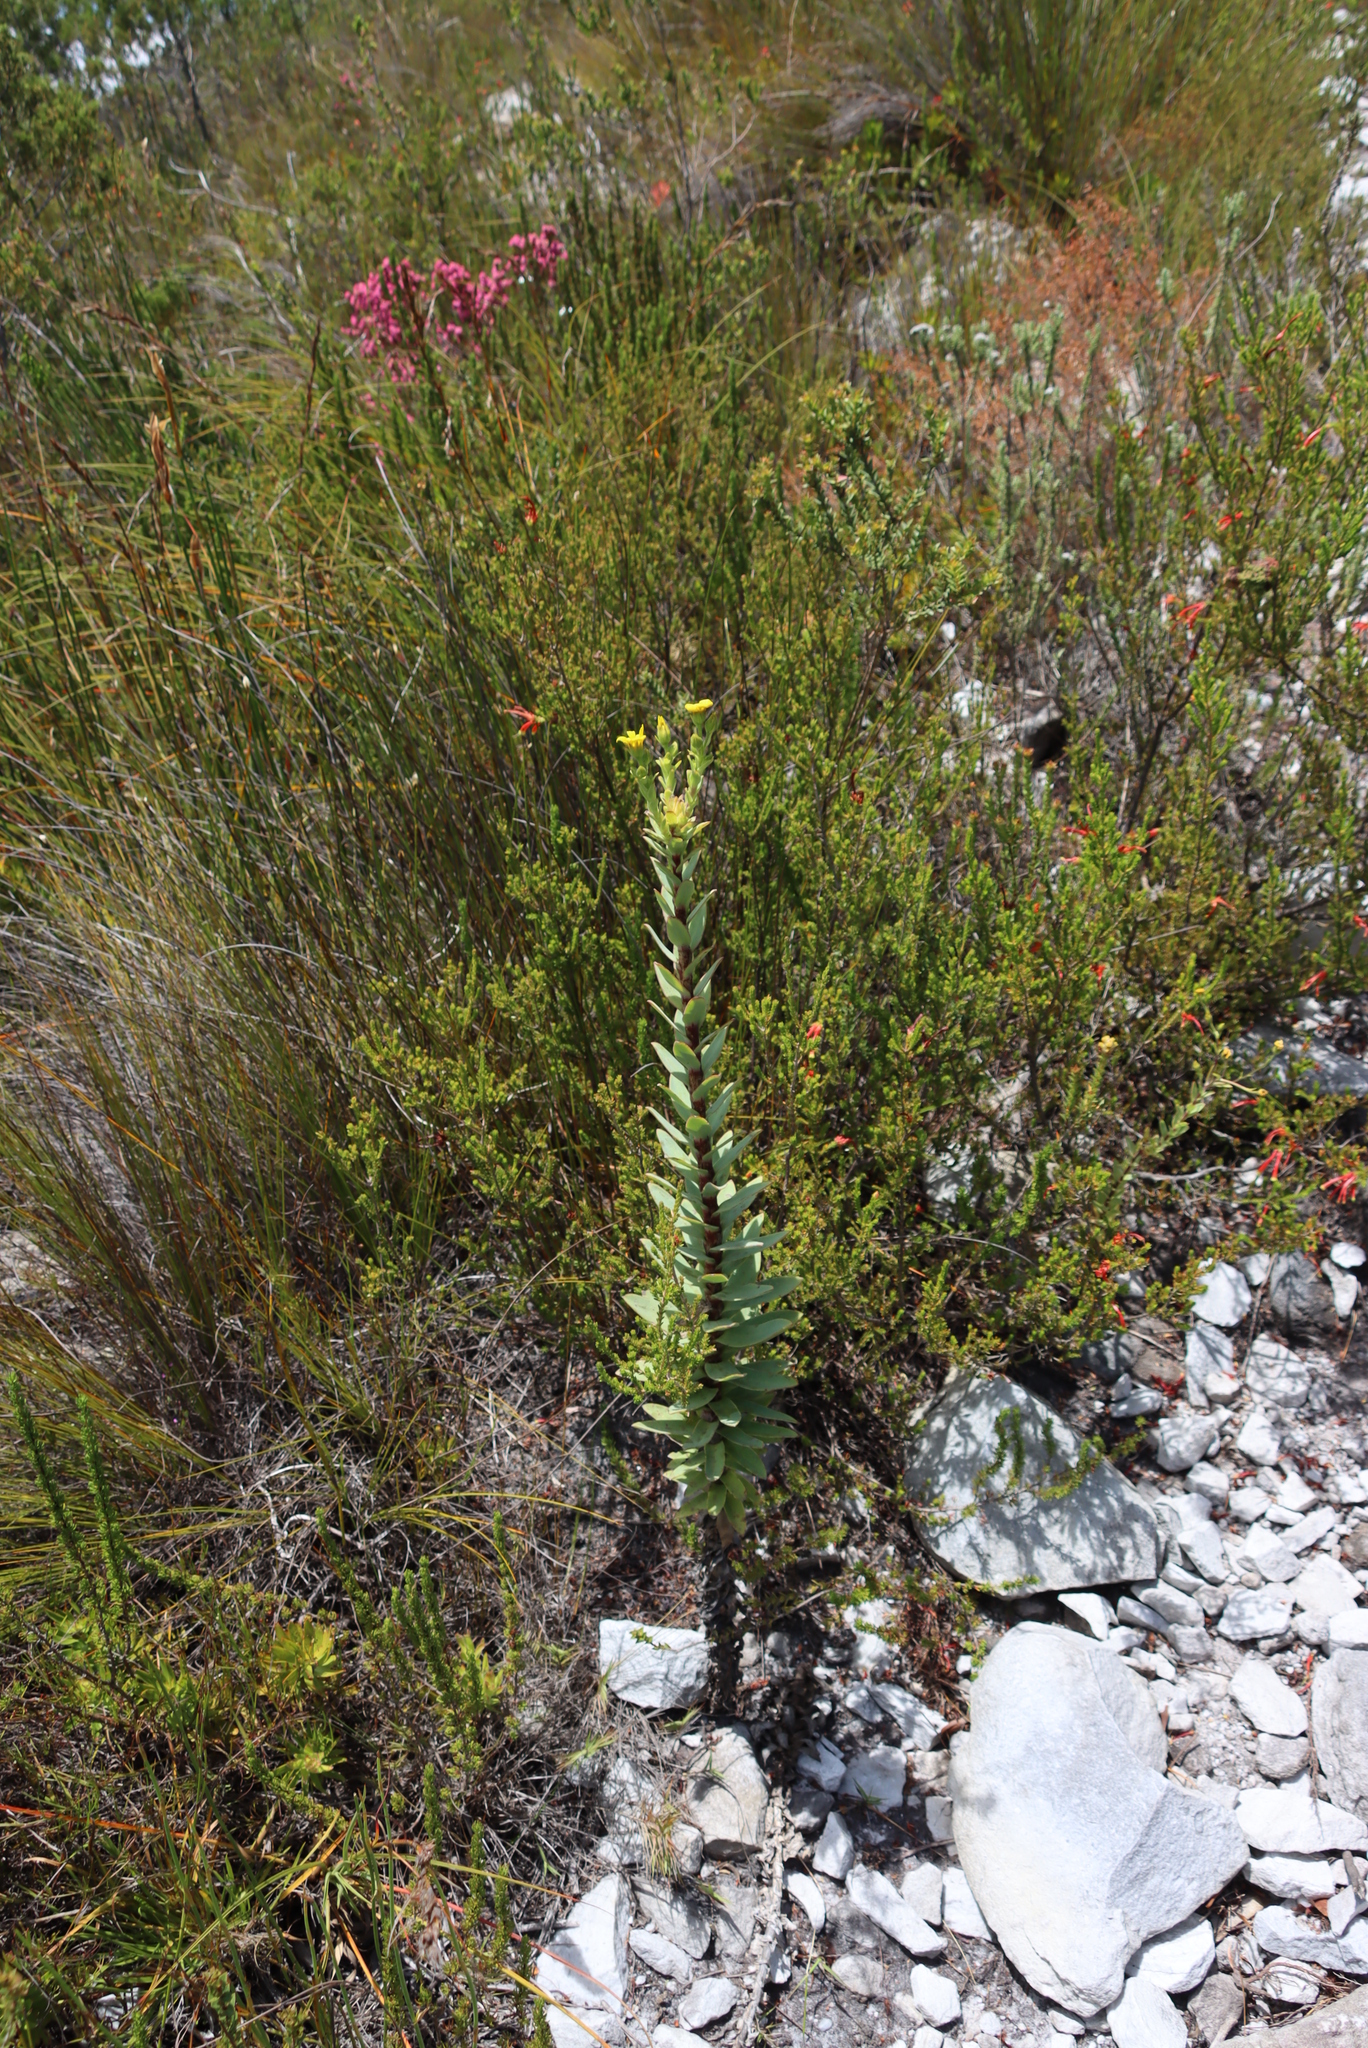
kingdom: Plantae
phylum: Tracheophyta
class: Magnoliopsida
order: Asterales
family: Asteraceae
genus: Osteospermum
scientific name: Osteospermum corymbosum
